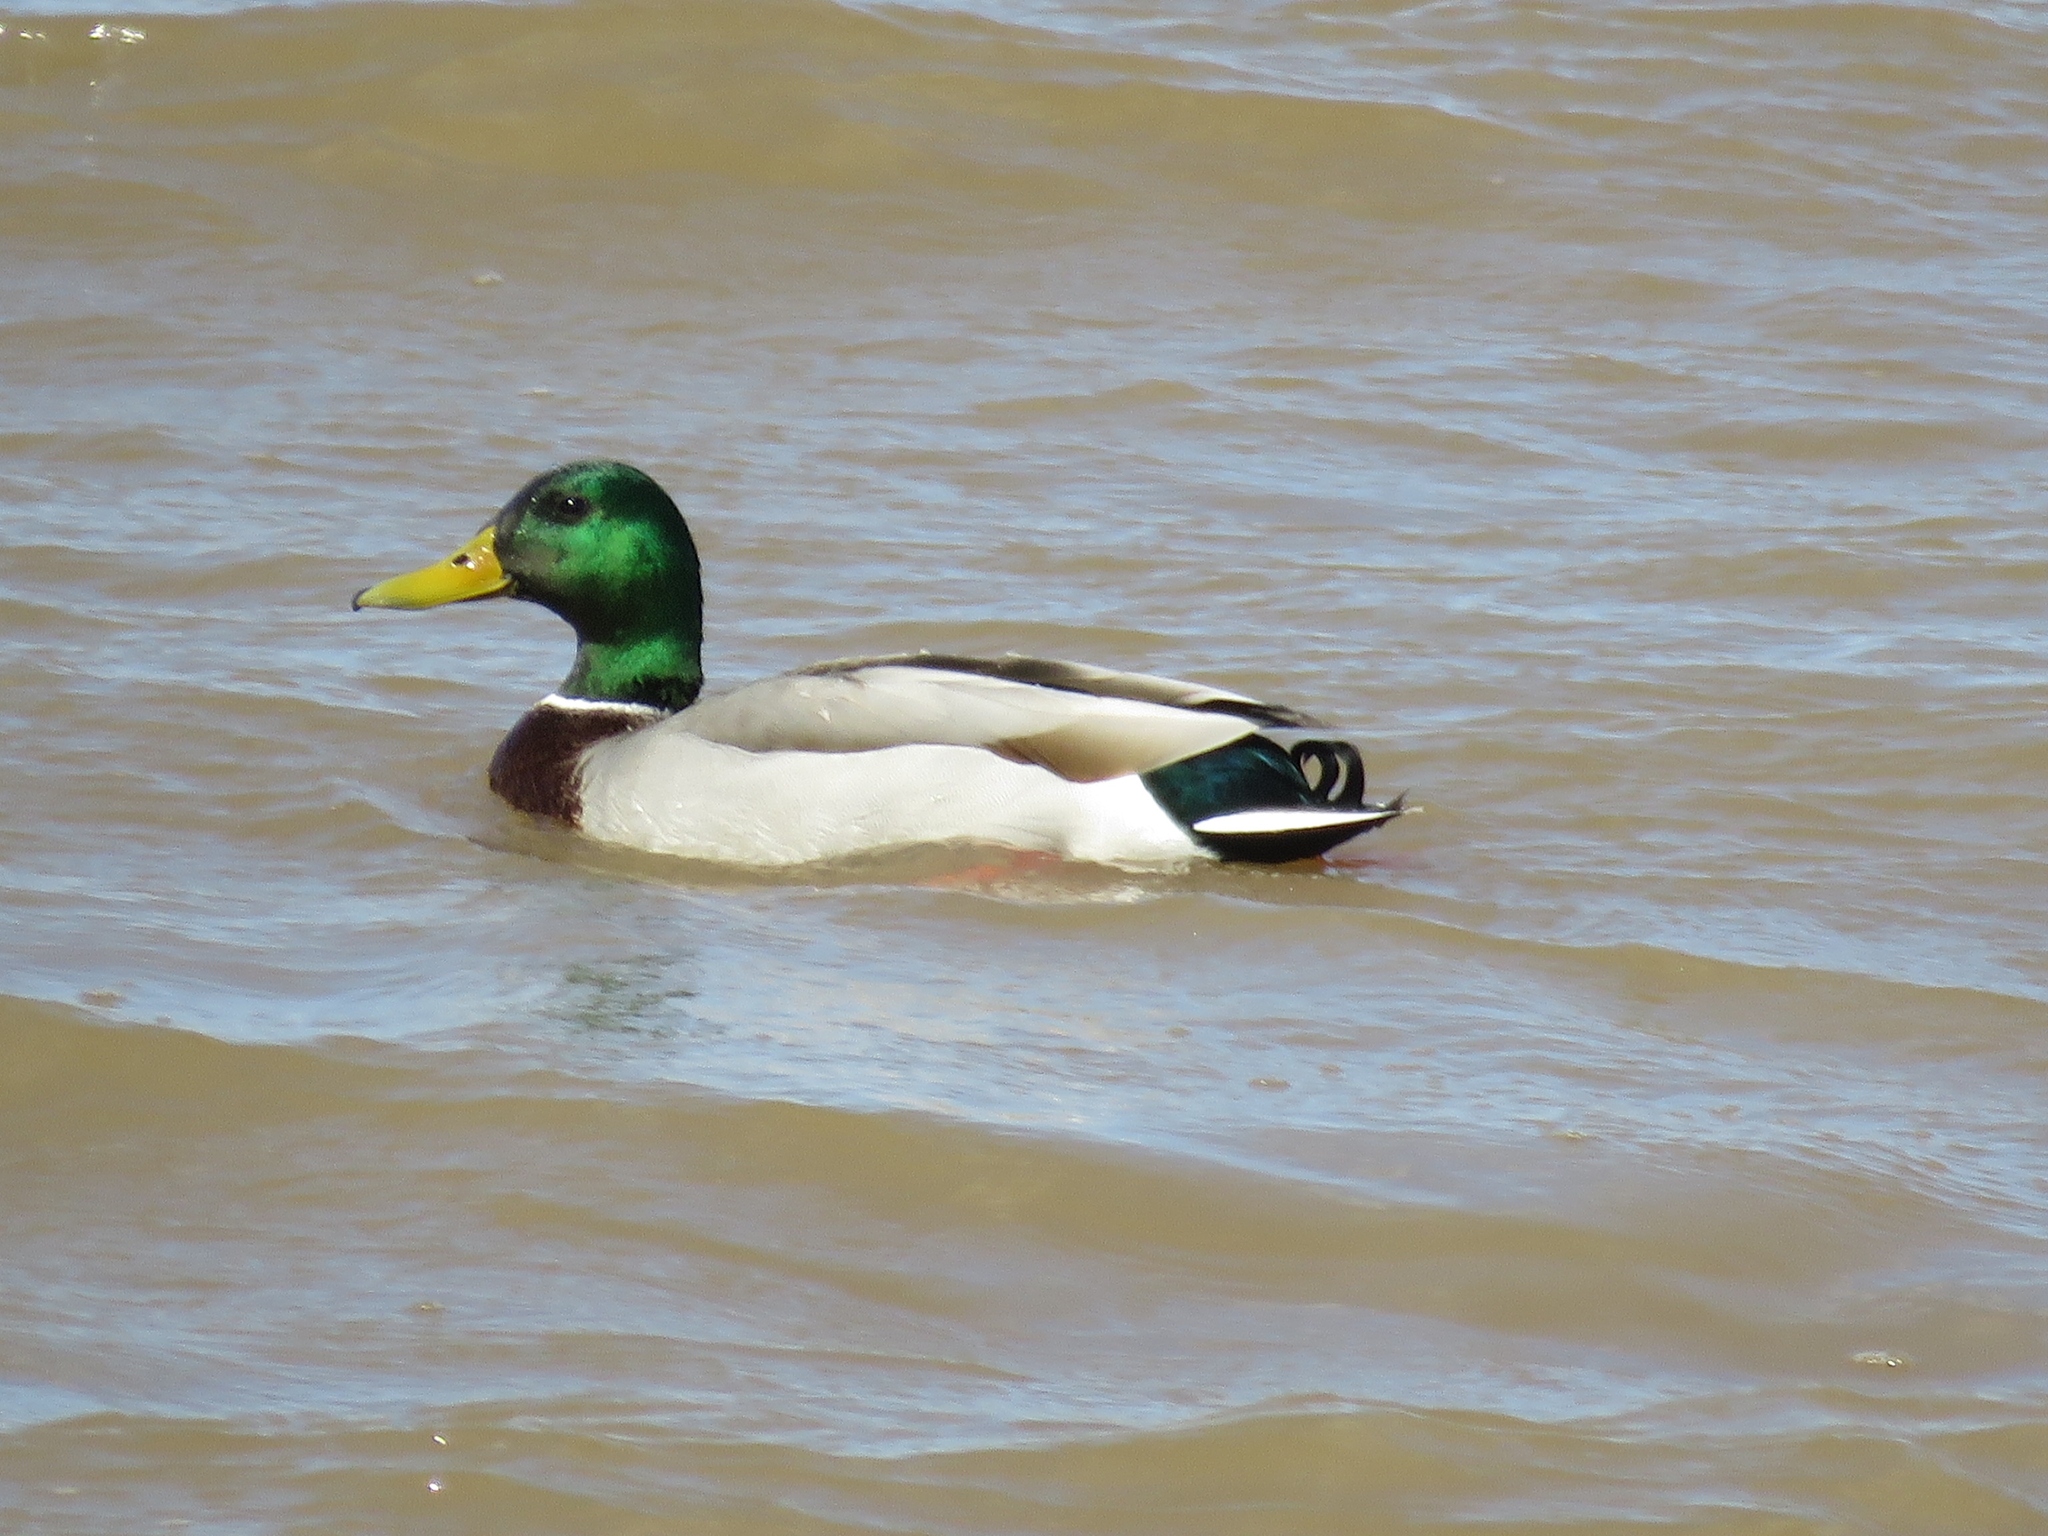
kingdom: Animalia
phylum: Chordata
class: Aves
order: Anseriformes
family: Anatidae
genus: Anas
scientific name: Anas platyrhynchos
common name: Mallard
